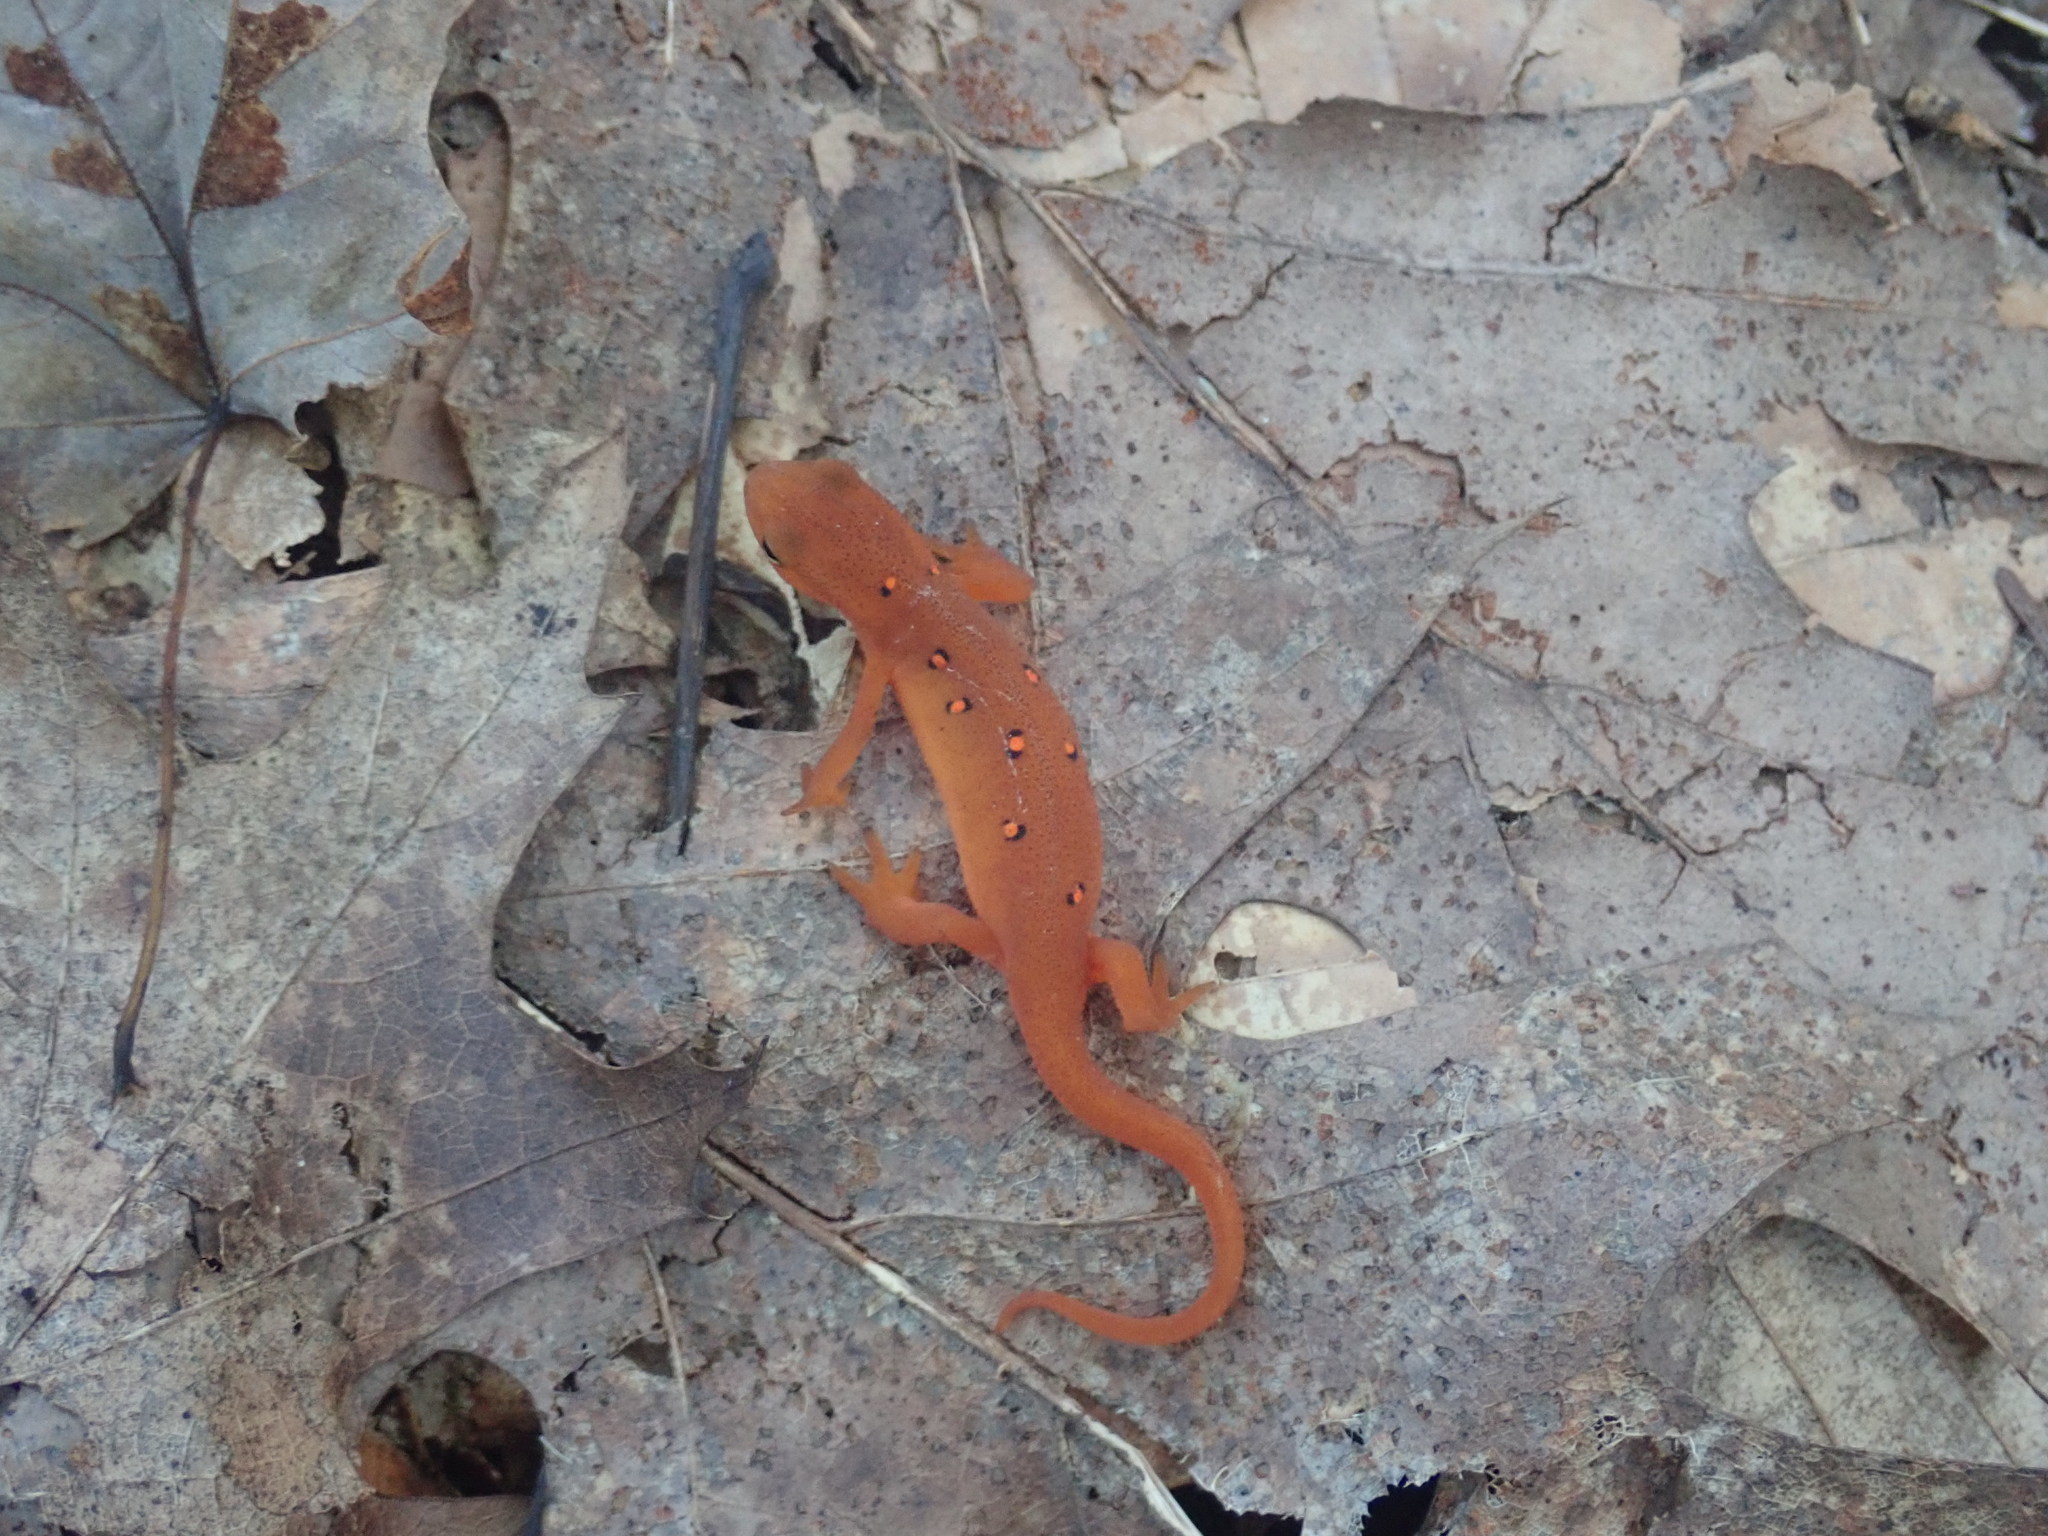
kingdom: Animalia
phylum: Chordata
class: Amphibia
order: Caudata
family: Salamandridae
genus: Notophthalmus
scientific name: Notophthalmus viridescens
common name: Eastern newt
